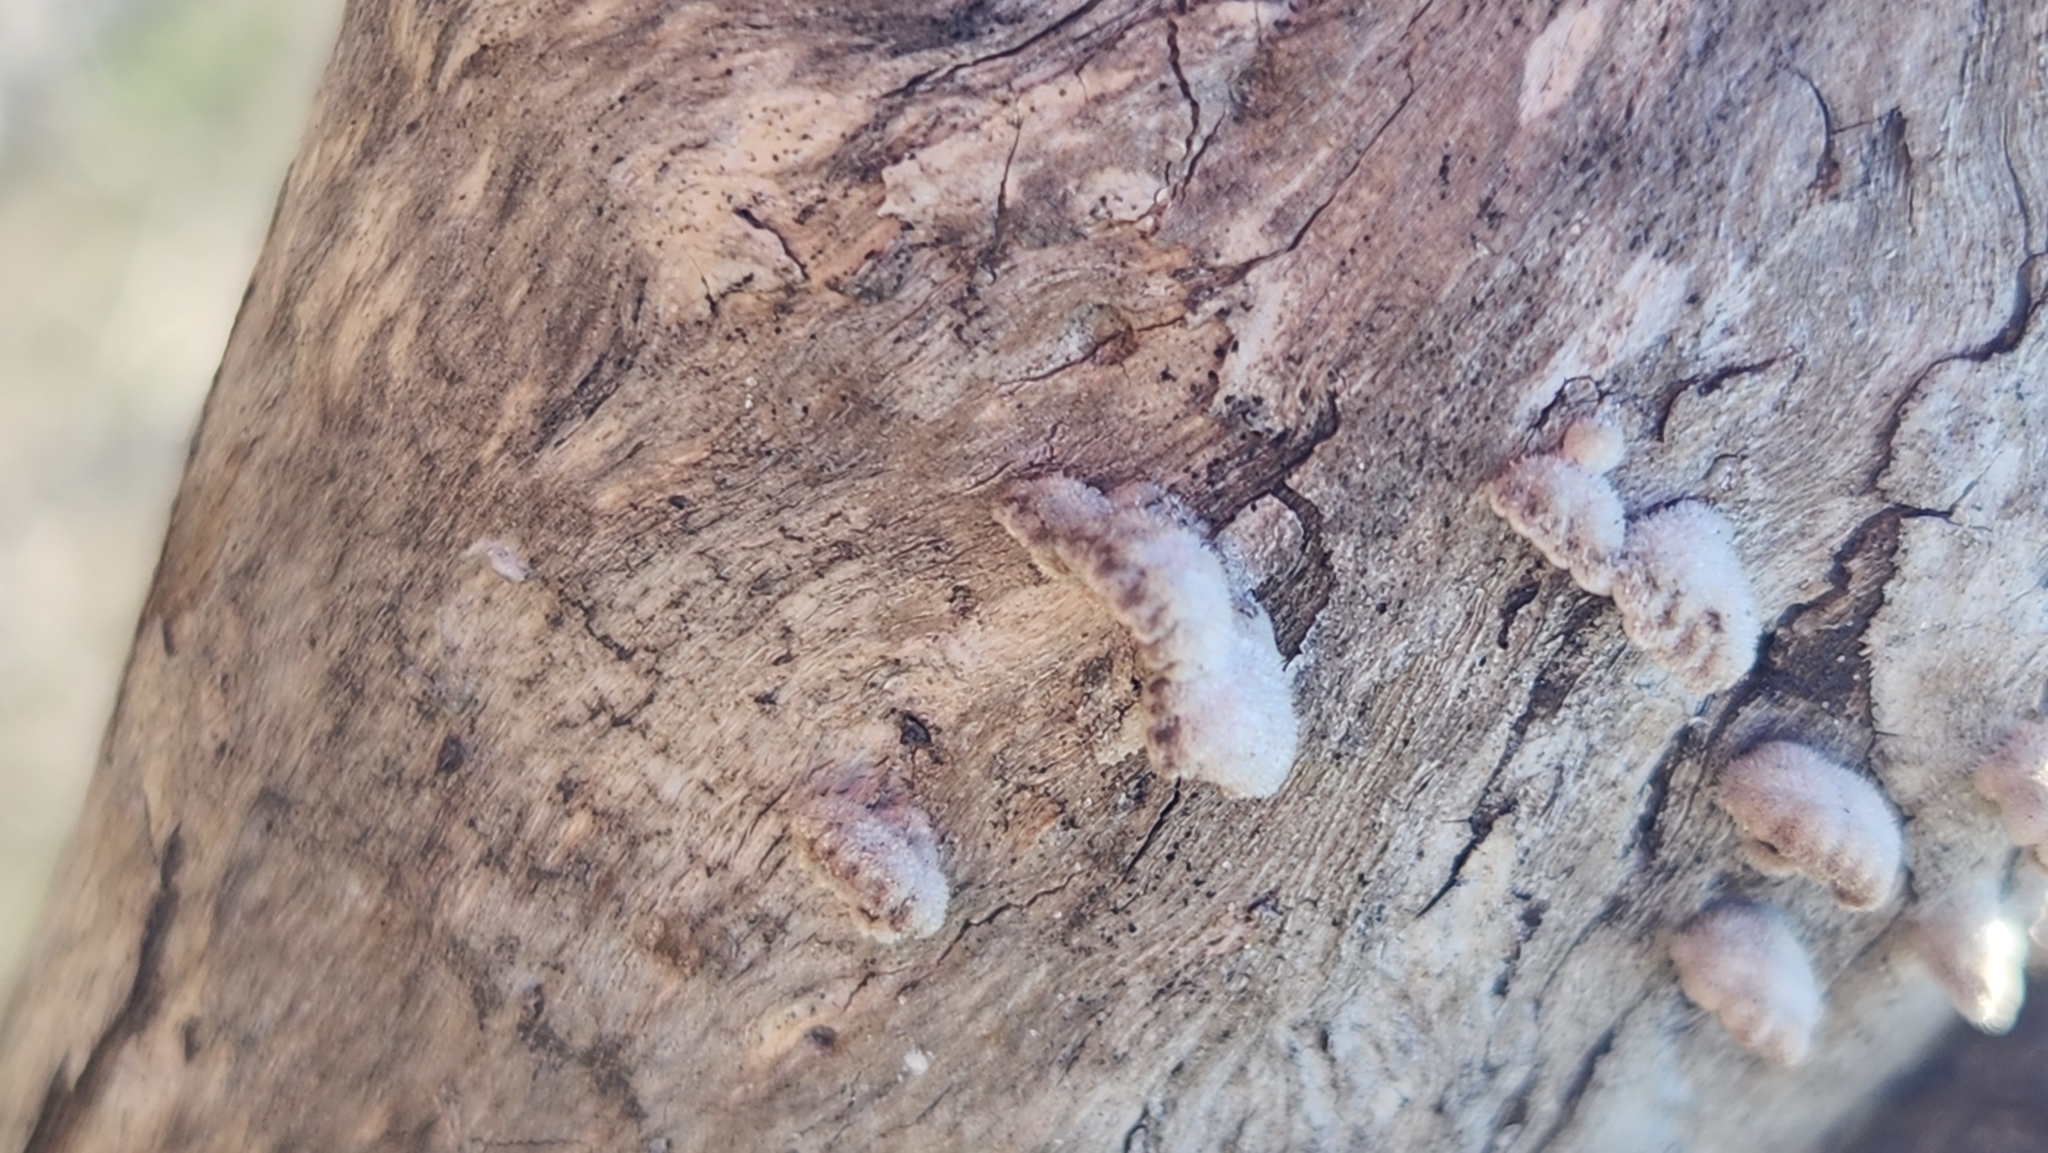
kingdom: Fungi
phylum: Basidiomycota
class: Agaricomycetes
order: Agaricales
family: Schizophyllaceae
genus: Schizophyllum
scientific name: Schizophyllum commune
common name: Common porecrust
